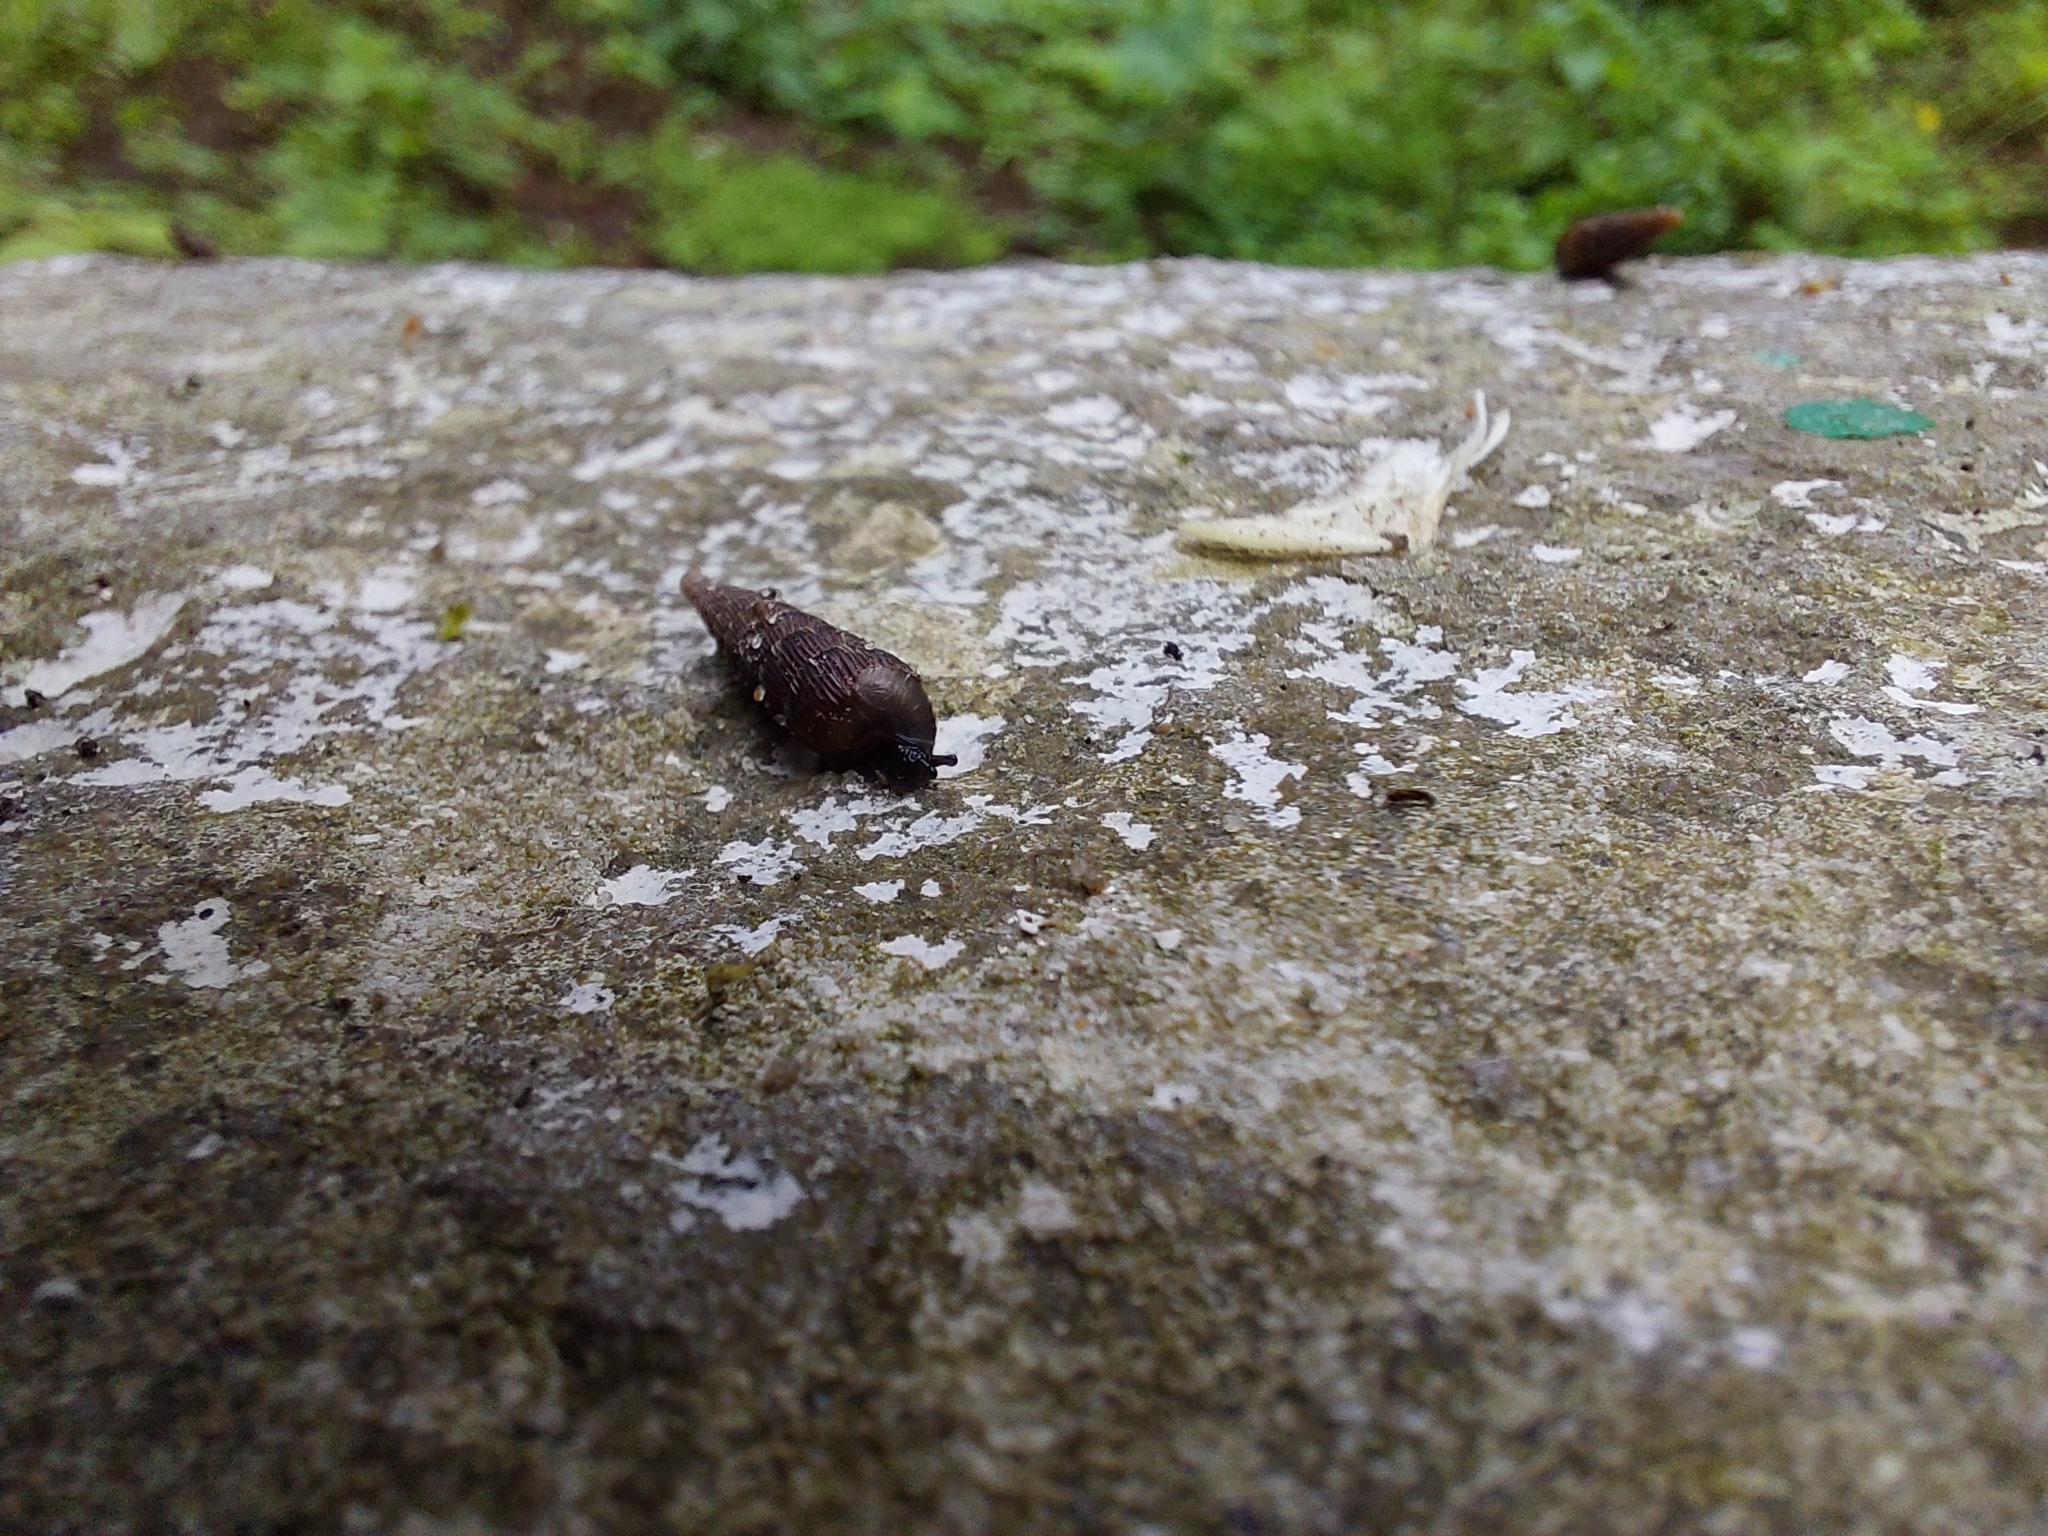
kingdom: Animalia
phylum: Mollusca
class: Gastropoda
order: Stylommatophora
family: Clausiliidae
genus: Laciniaria
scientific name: Laciniaria plicata
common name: Single-lipped door snail
